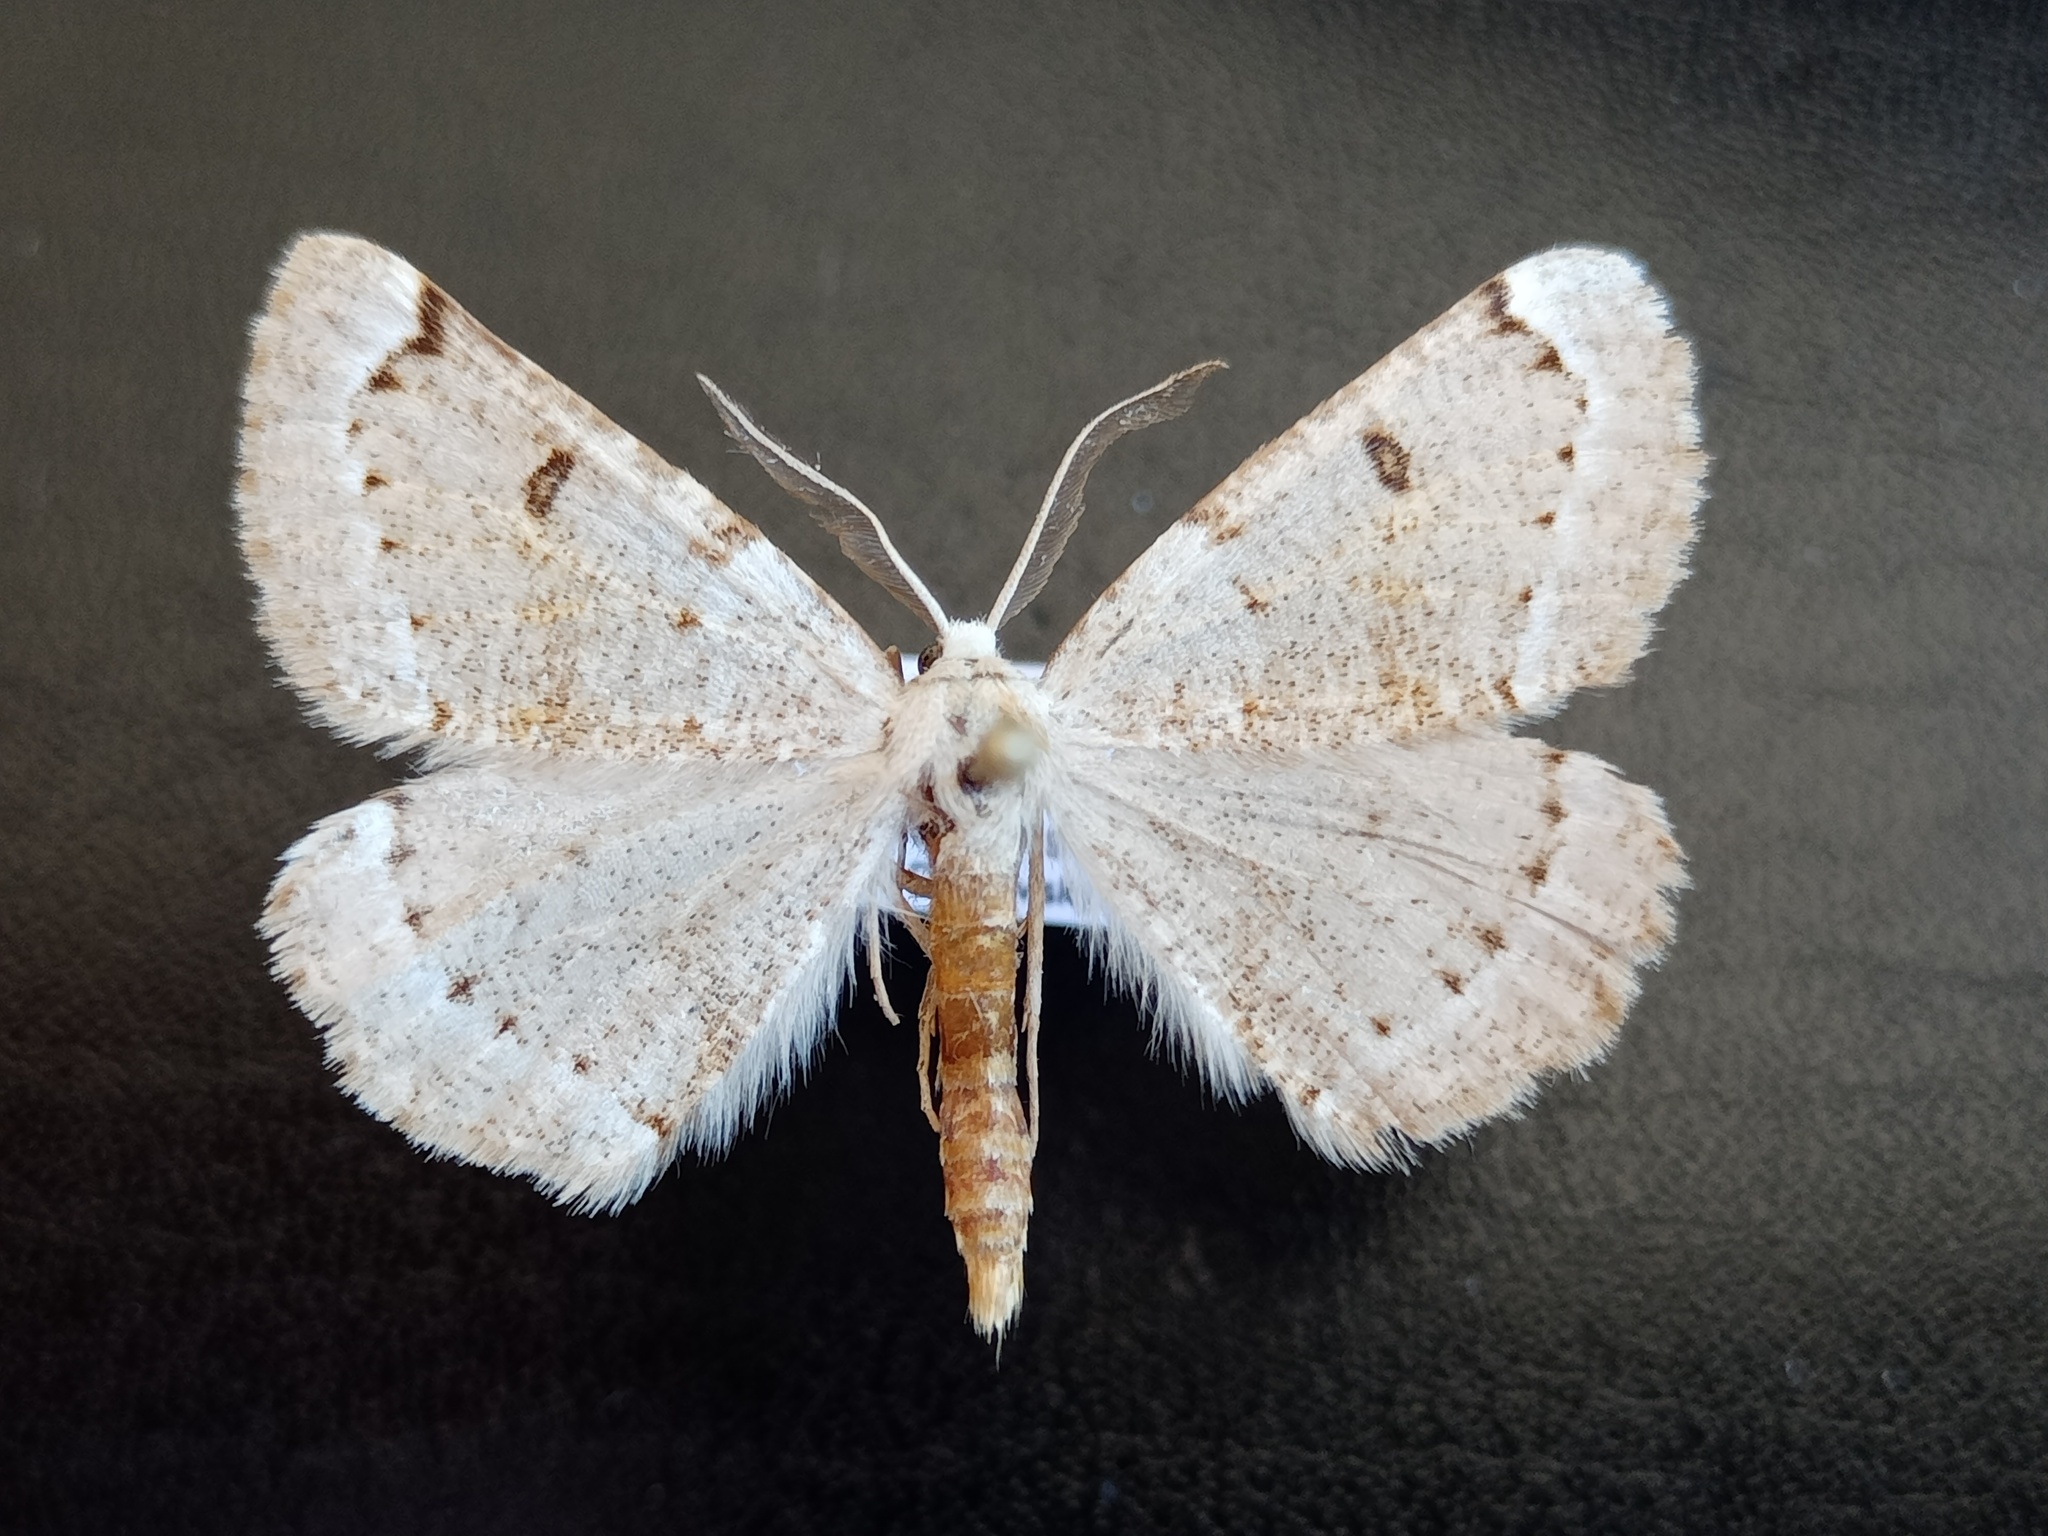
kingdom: Animalia
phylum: Arthropoda
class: Insecta
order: Lepidoptera
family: Geometridae
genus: Dyscia
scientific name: Dyscia simplicaria
